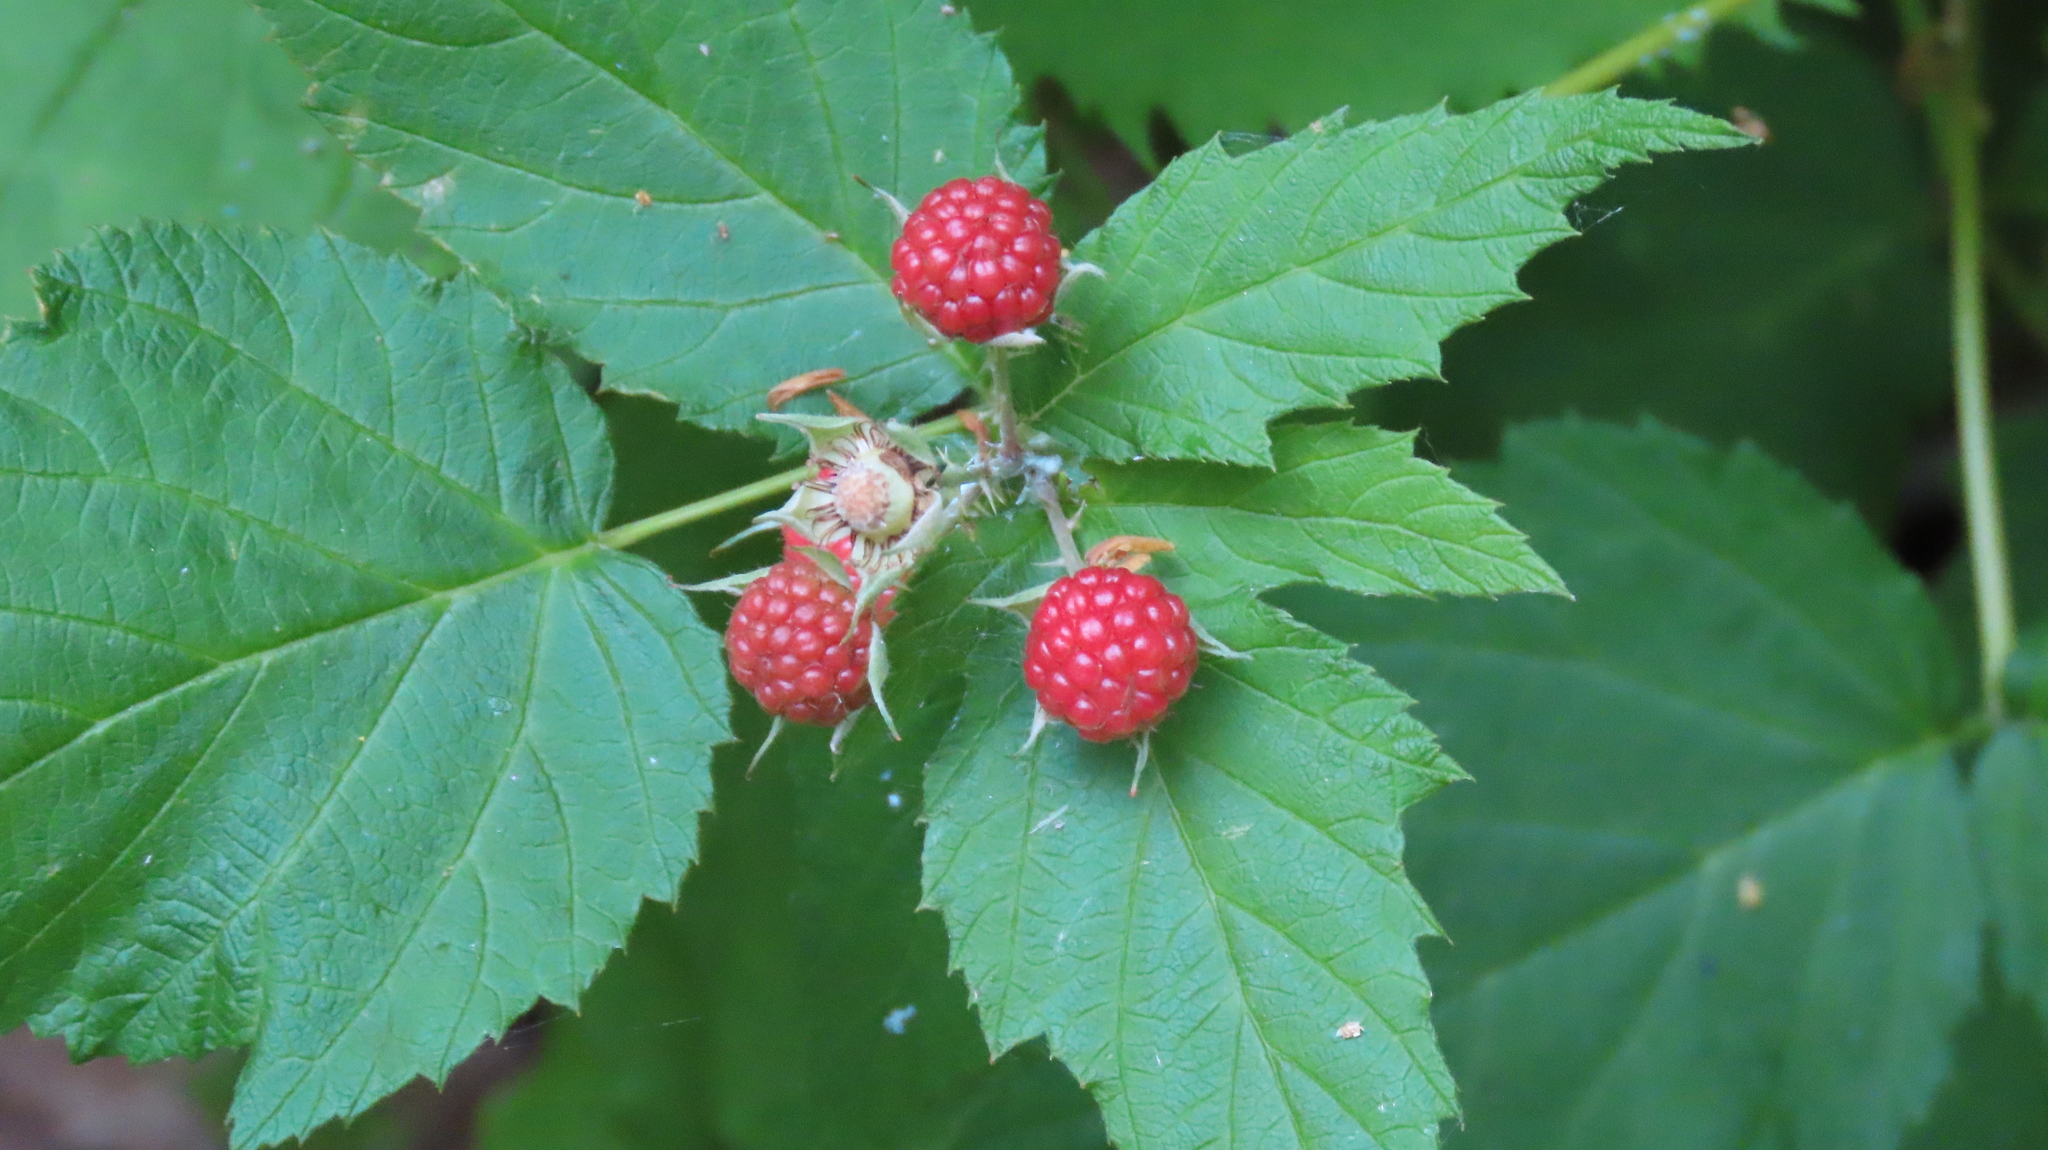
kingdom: Plantae
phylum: Tracheophyta
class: Magnoliopsida
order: Rosales
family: Rosaceae
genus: Rubus
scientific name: Rubus occidentalis
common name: Black raspberry
